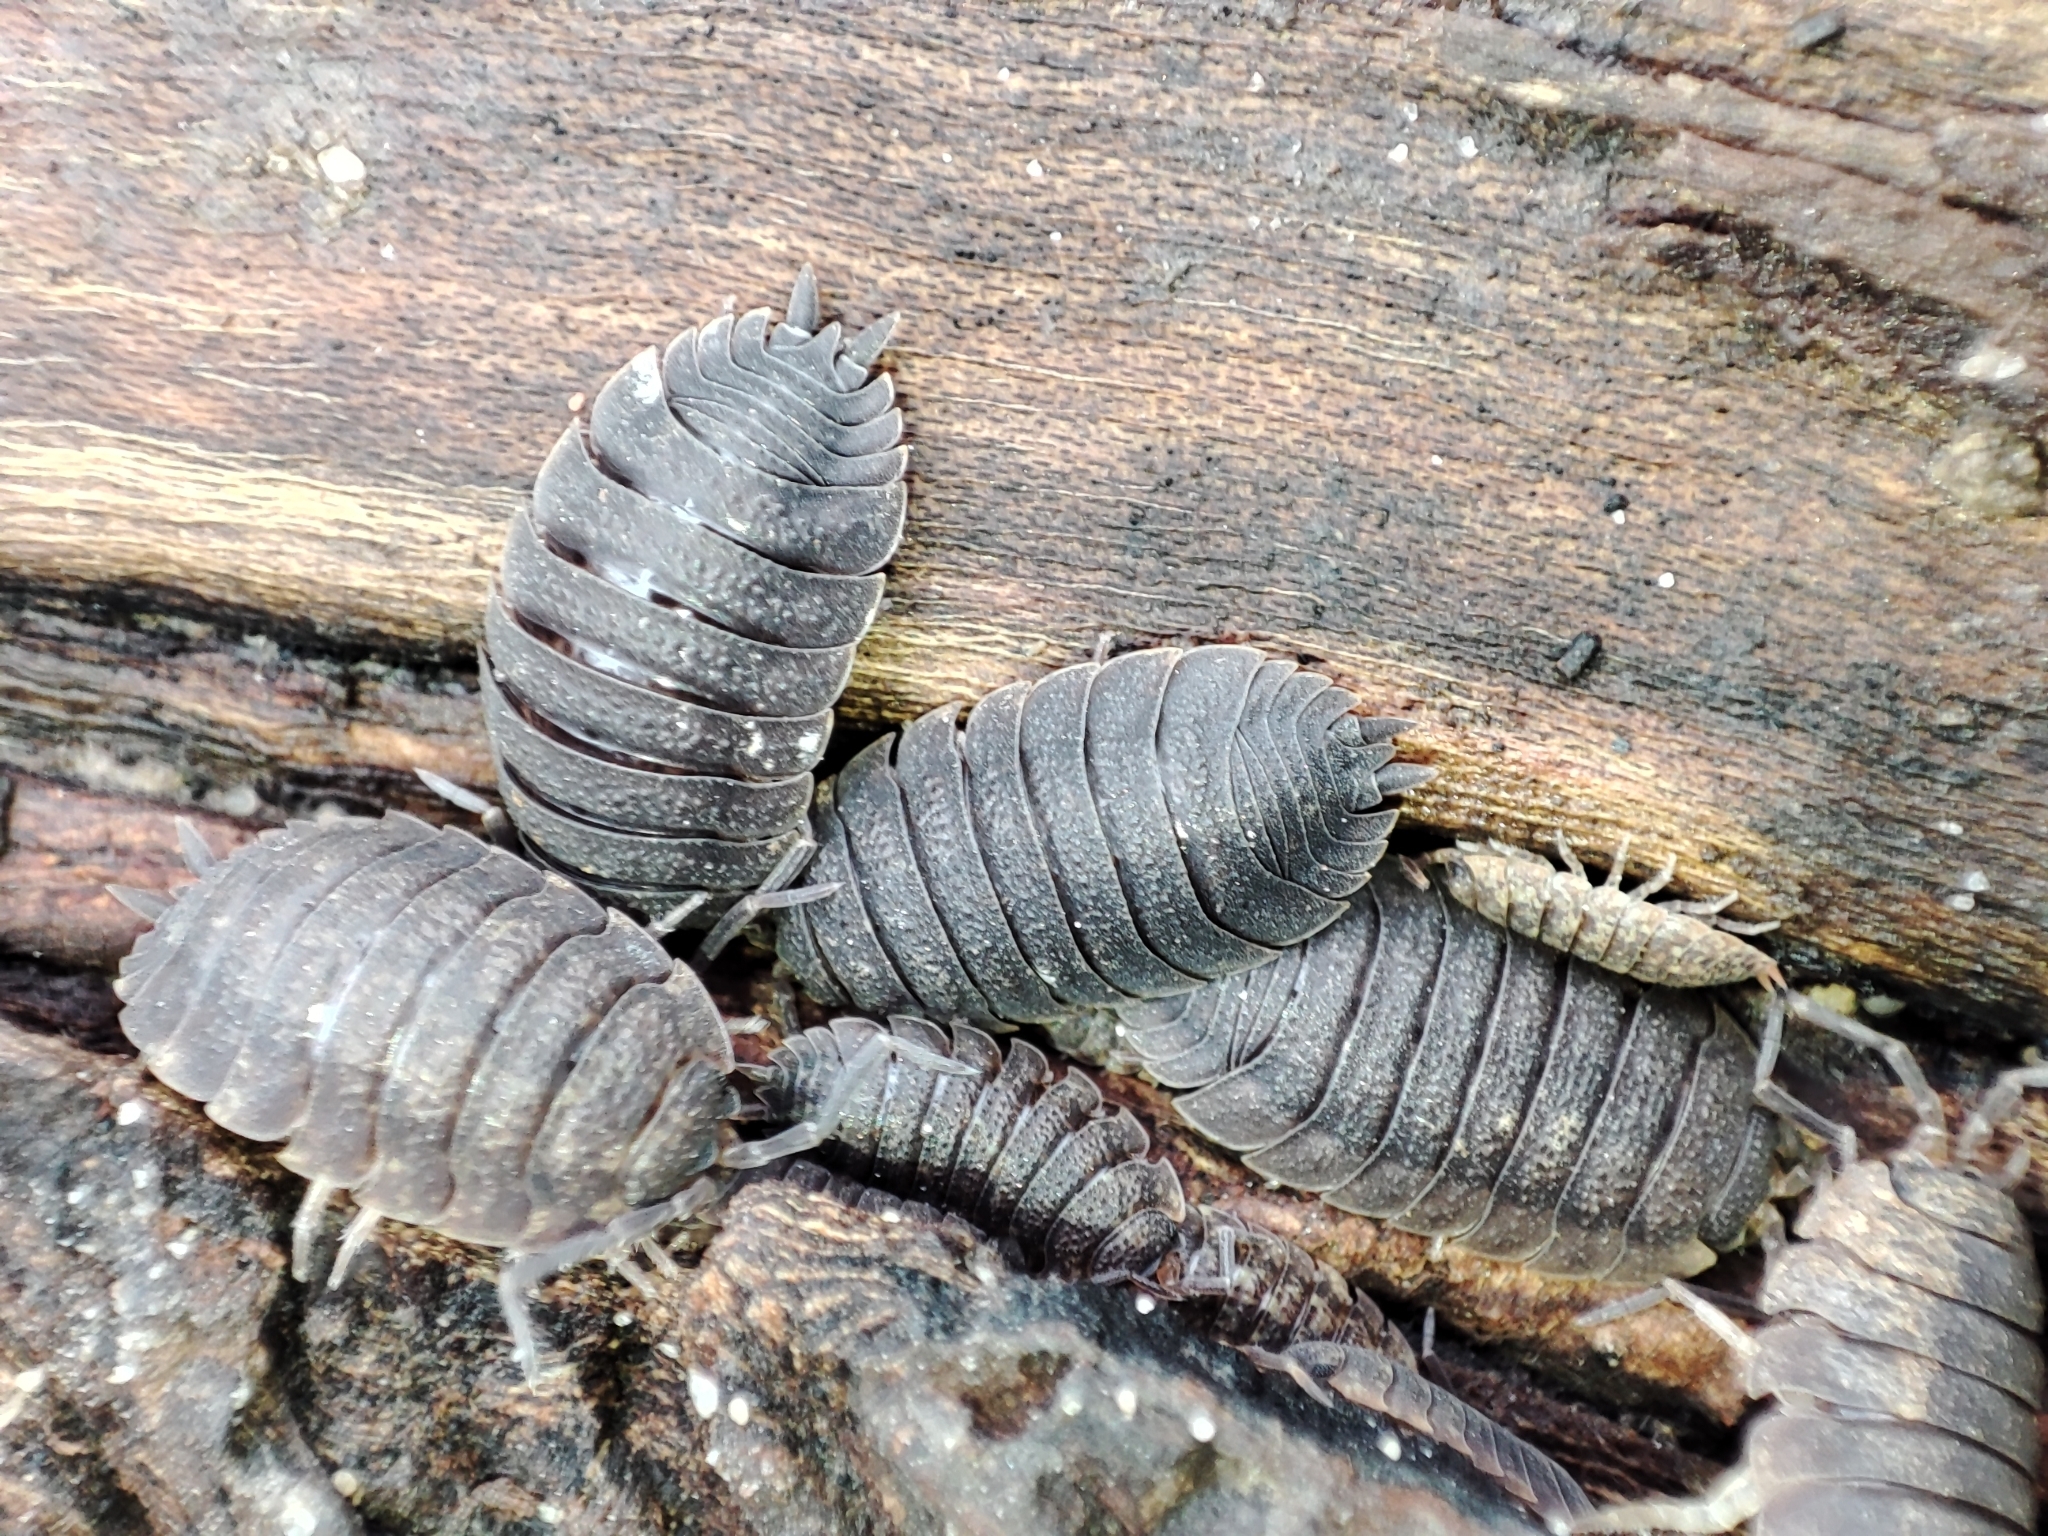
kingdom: Animalia
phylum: Arthropoda
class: Malacostraca
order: Isopoda
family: Porcellionidae
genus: Porcellio
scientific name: Porcellio scaber
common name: Common rough woodlouse
